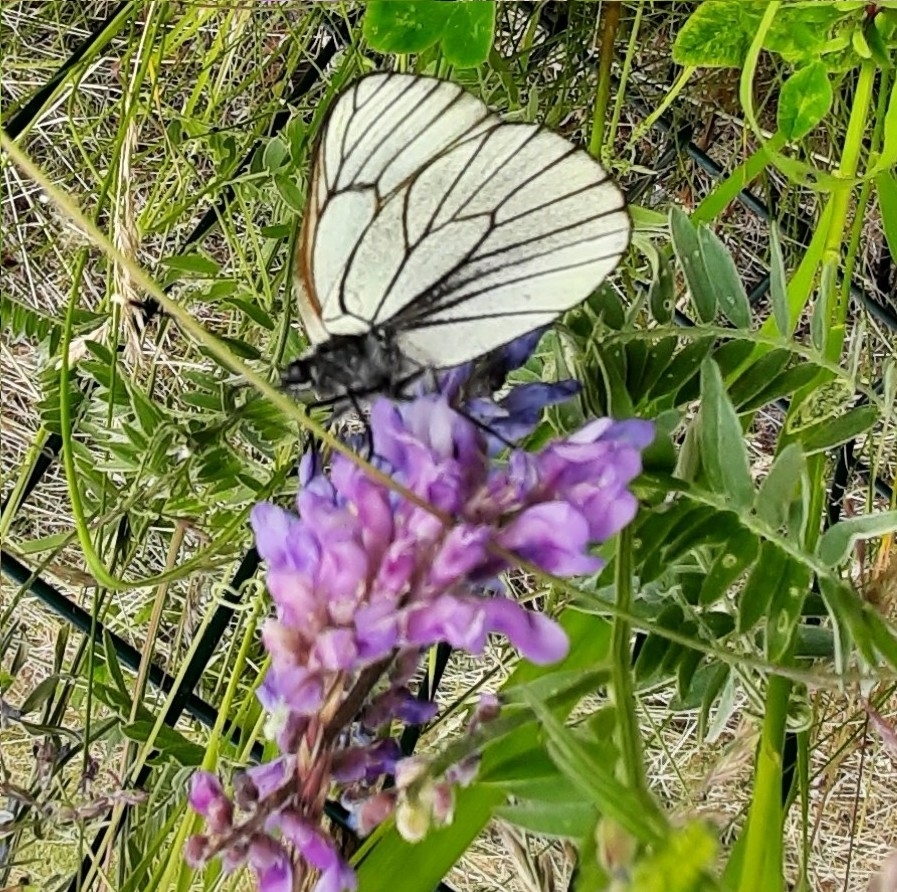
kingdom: Animalia
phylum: Arthropoda
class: Insecta
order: Lepidoptera
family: Pieridae
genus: Aporia
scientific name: Aporia crataegi
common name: Black-veined white
